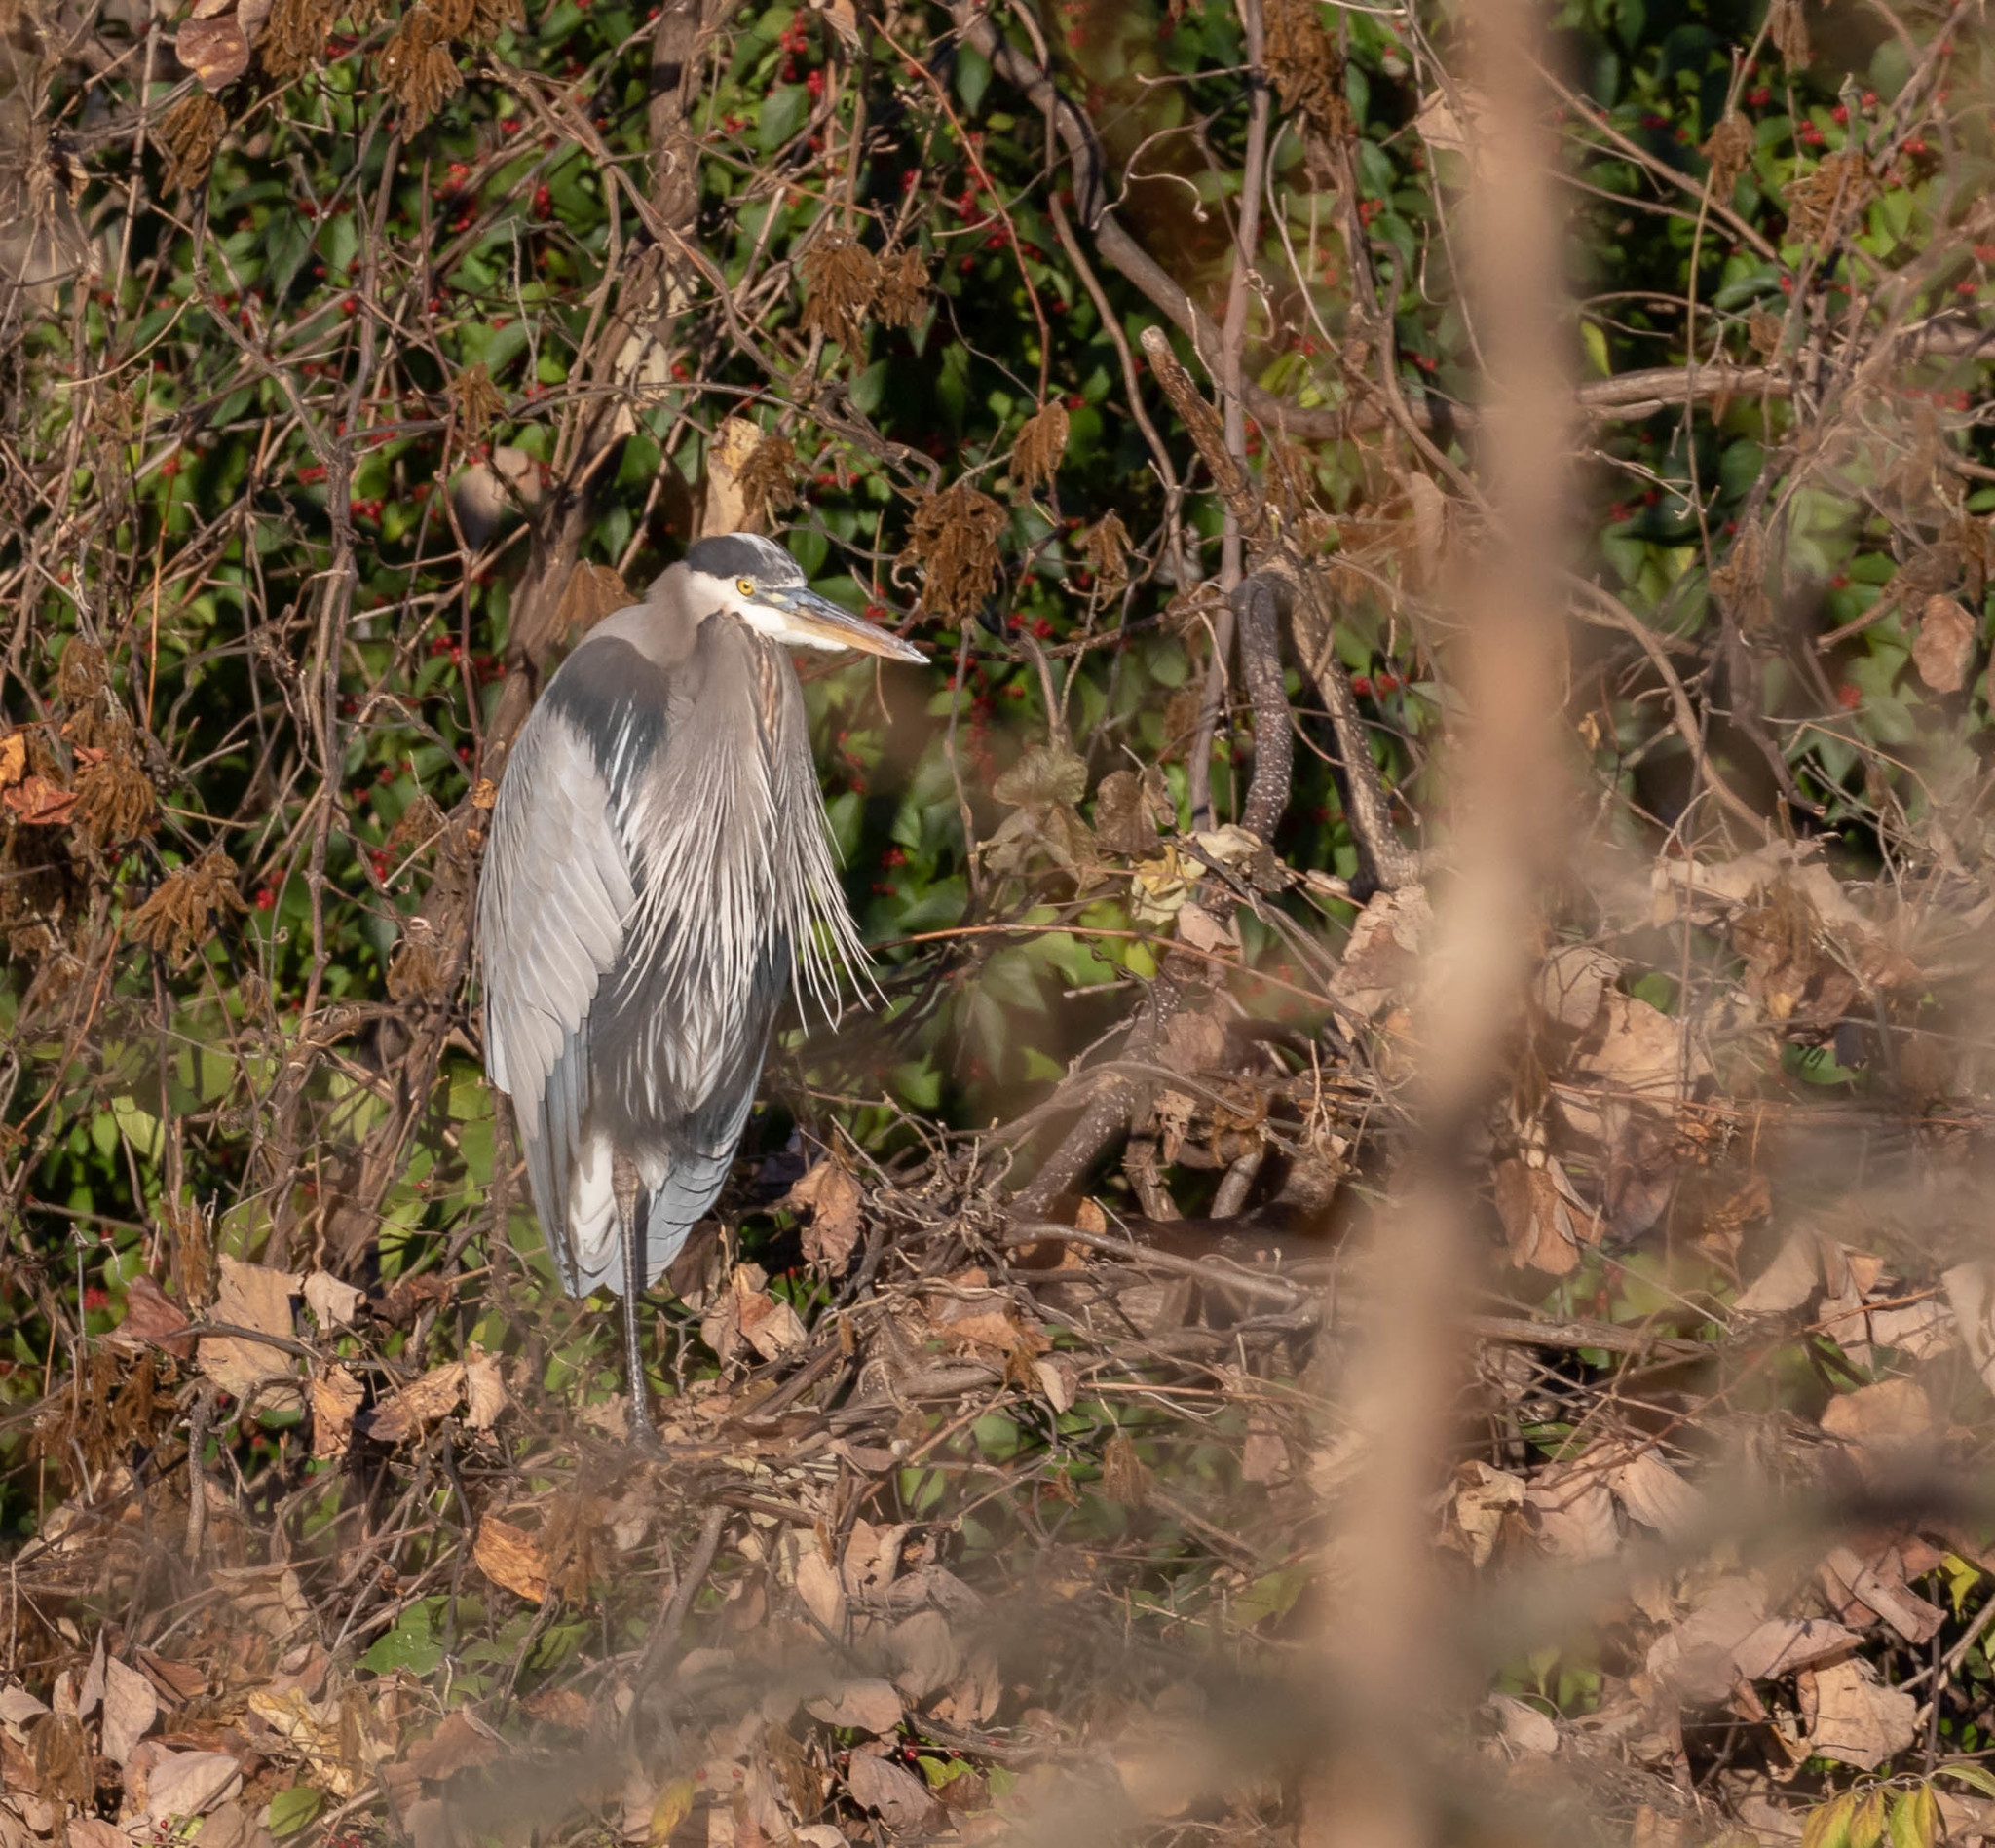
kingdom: Animalia
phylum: Chordata
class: Aves
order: Pelecaniformes
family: Ardeidae
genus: Ardea
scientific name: Ardea herodias
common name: Great blue heron
